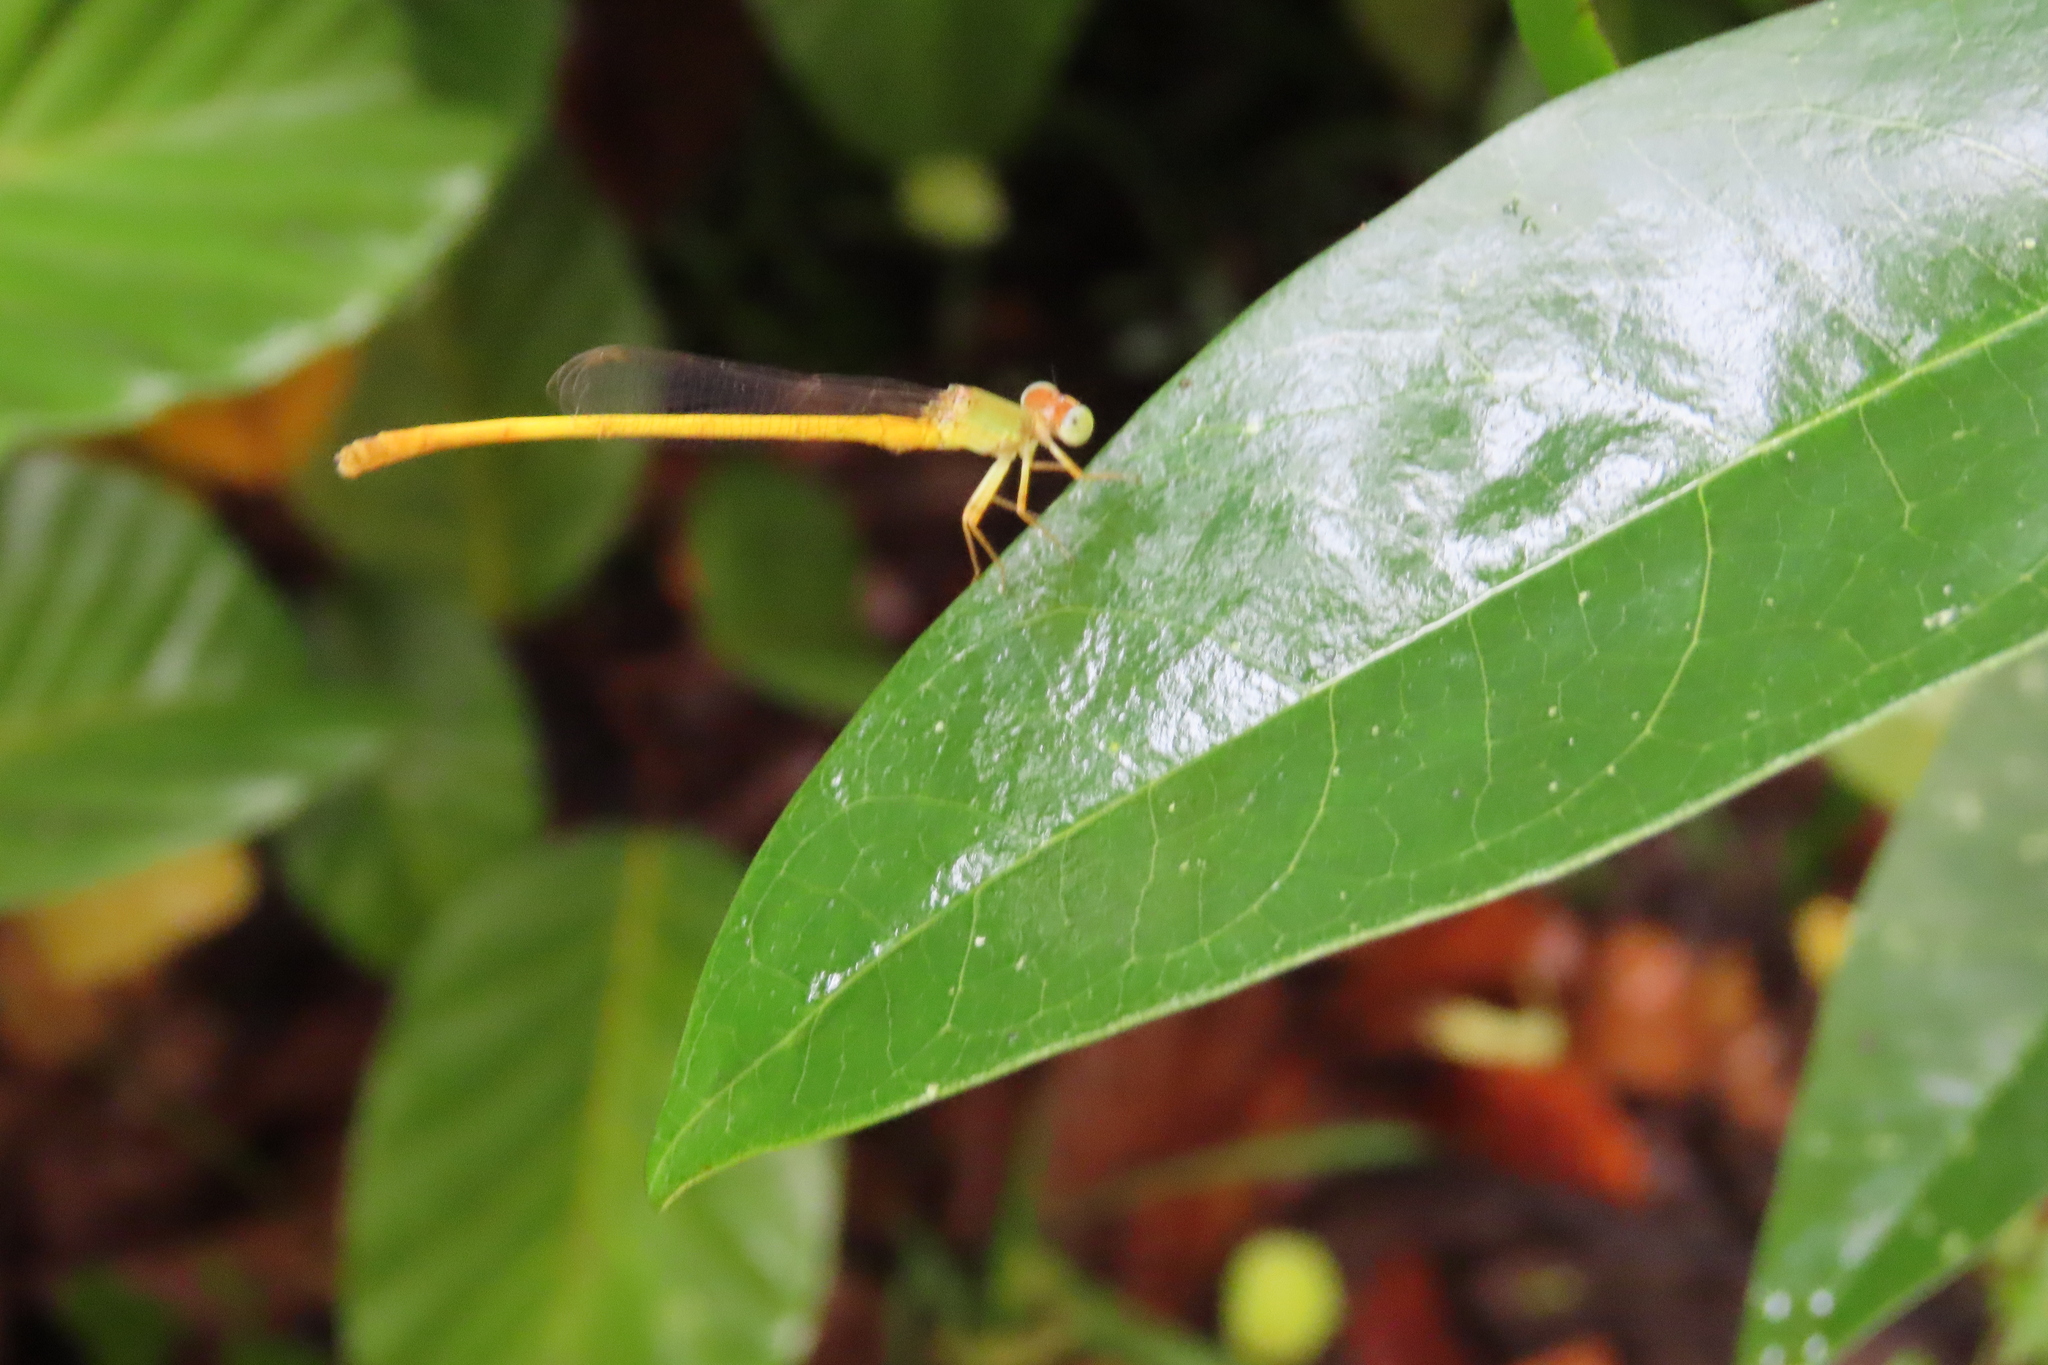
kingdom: Animalia
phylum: Arthropoda
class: Insecta
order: Odonata
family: Coenagrionidae
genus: Ceriagrion
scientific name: Ceriagrion coromandelianum
